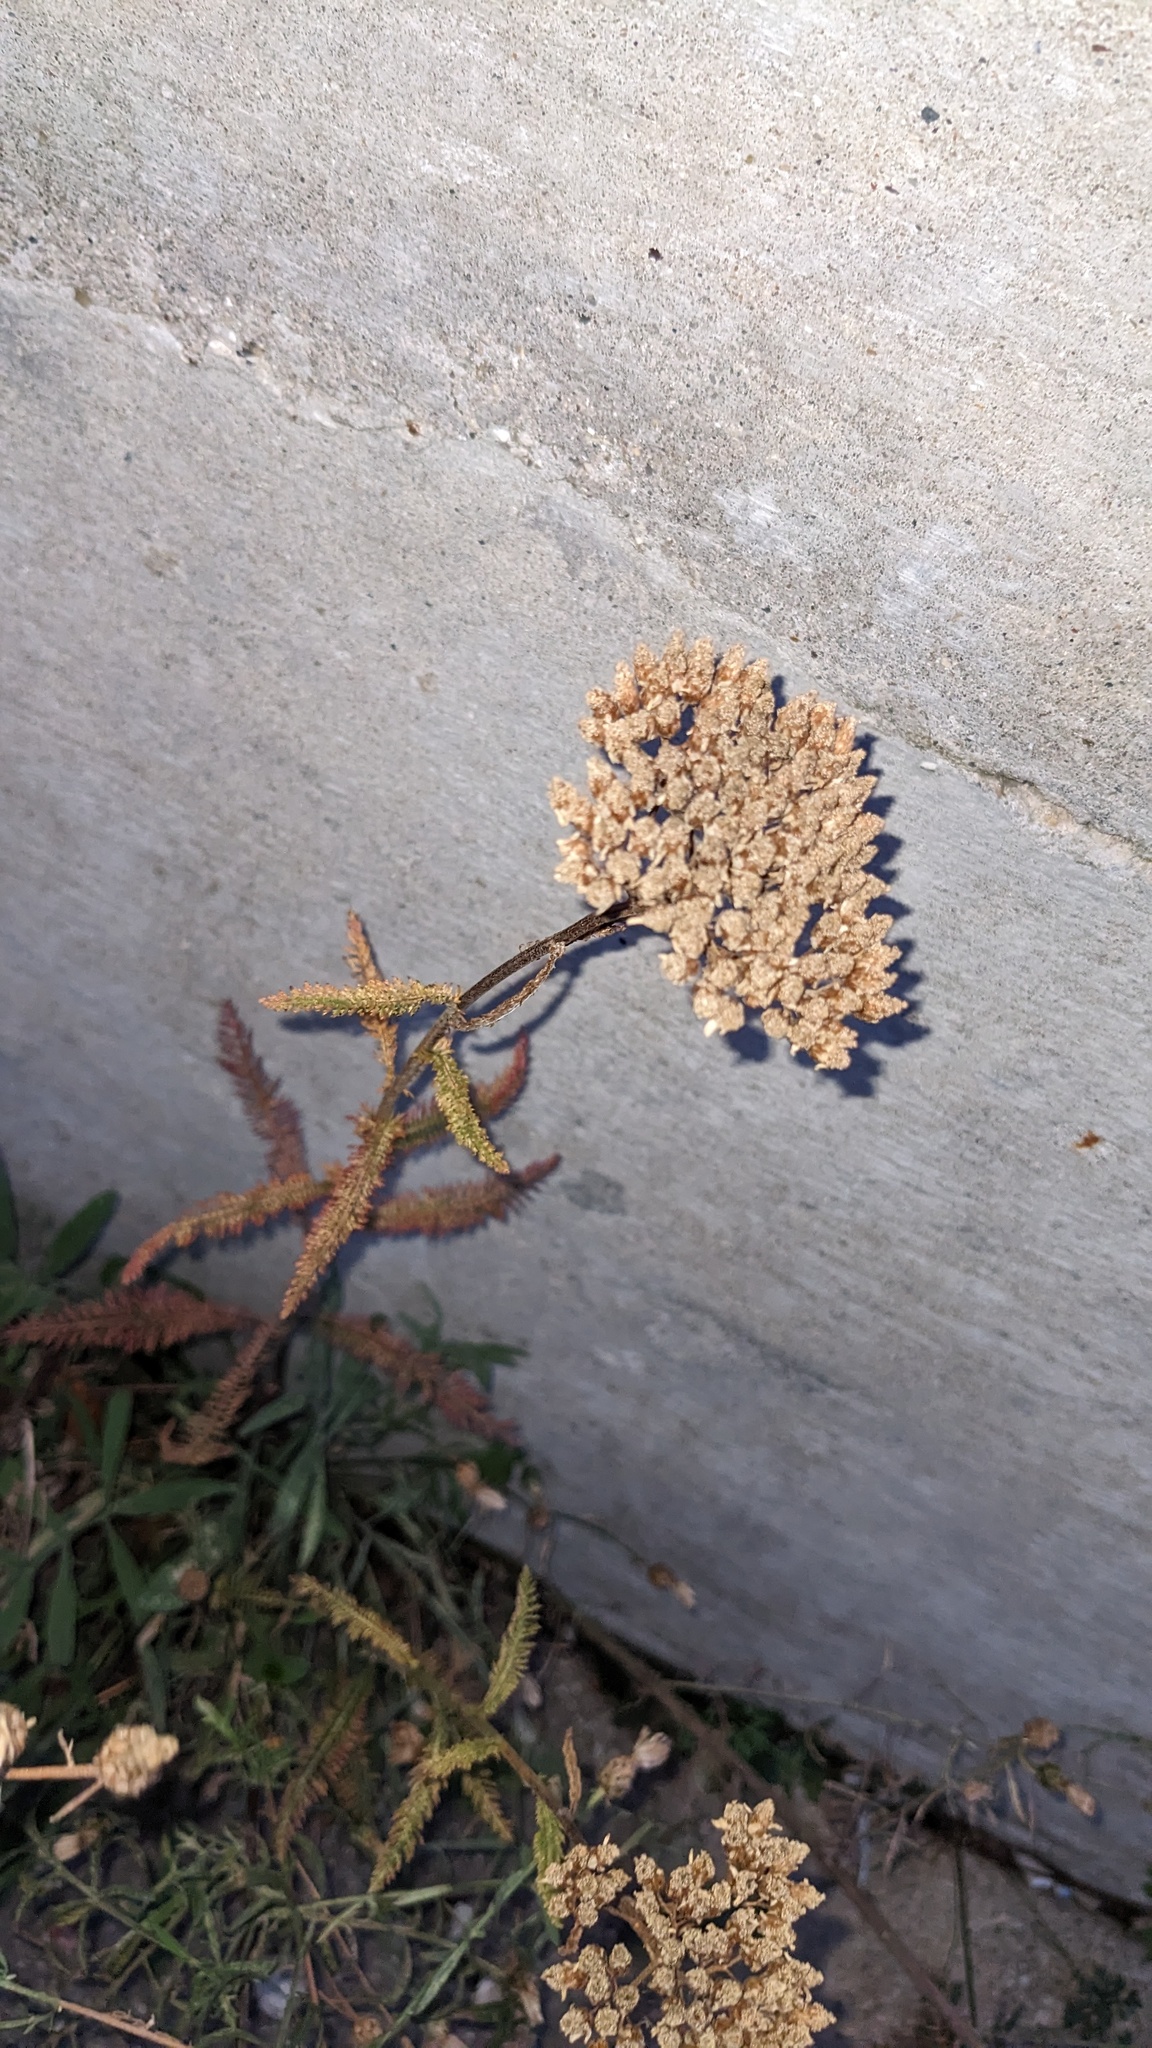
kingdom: Plantae
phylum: Tracheophyta
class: Magnoliopsida
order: Asterales
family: Asteraceae
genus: Achillea
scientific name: Achillea millefolium
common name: Yarrow
